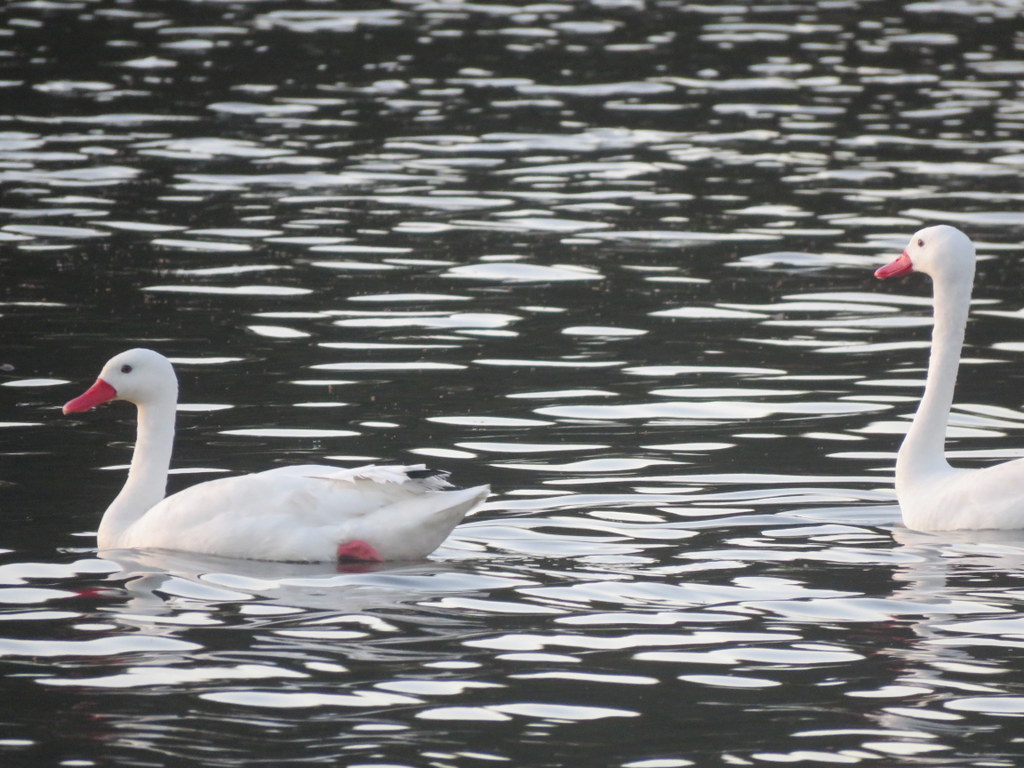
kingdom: Animalia
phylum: Chordata
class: Aves
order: Anseriformes
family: Anatidae
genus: Coscoroba
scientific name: Coscoroba coscoroba
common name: Coscoroba swan
